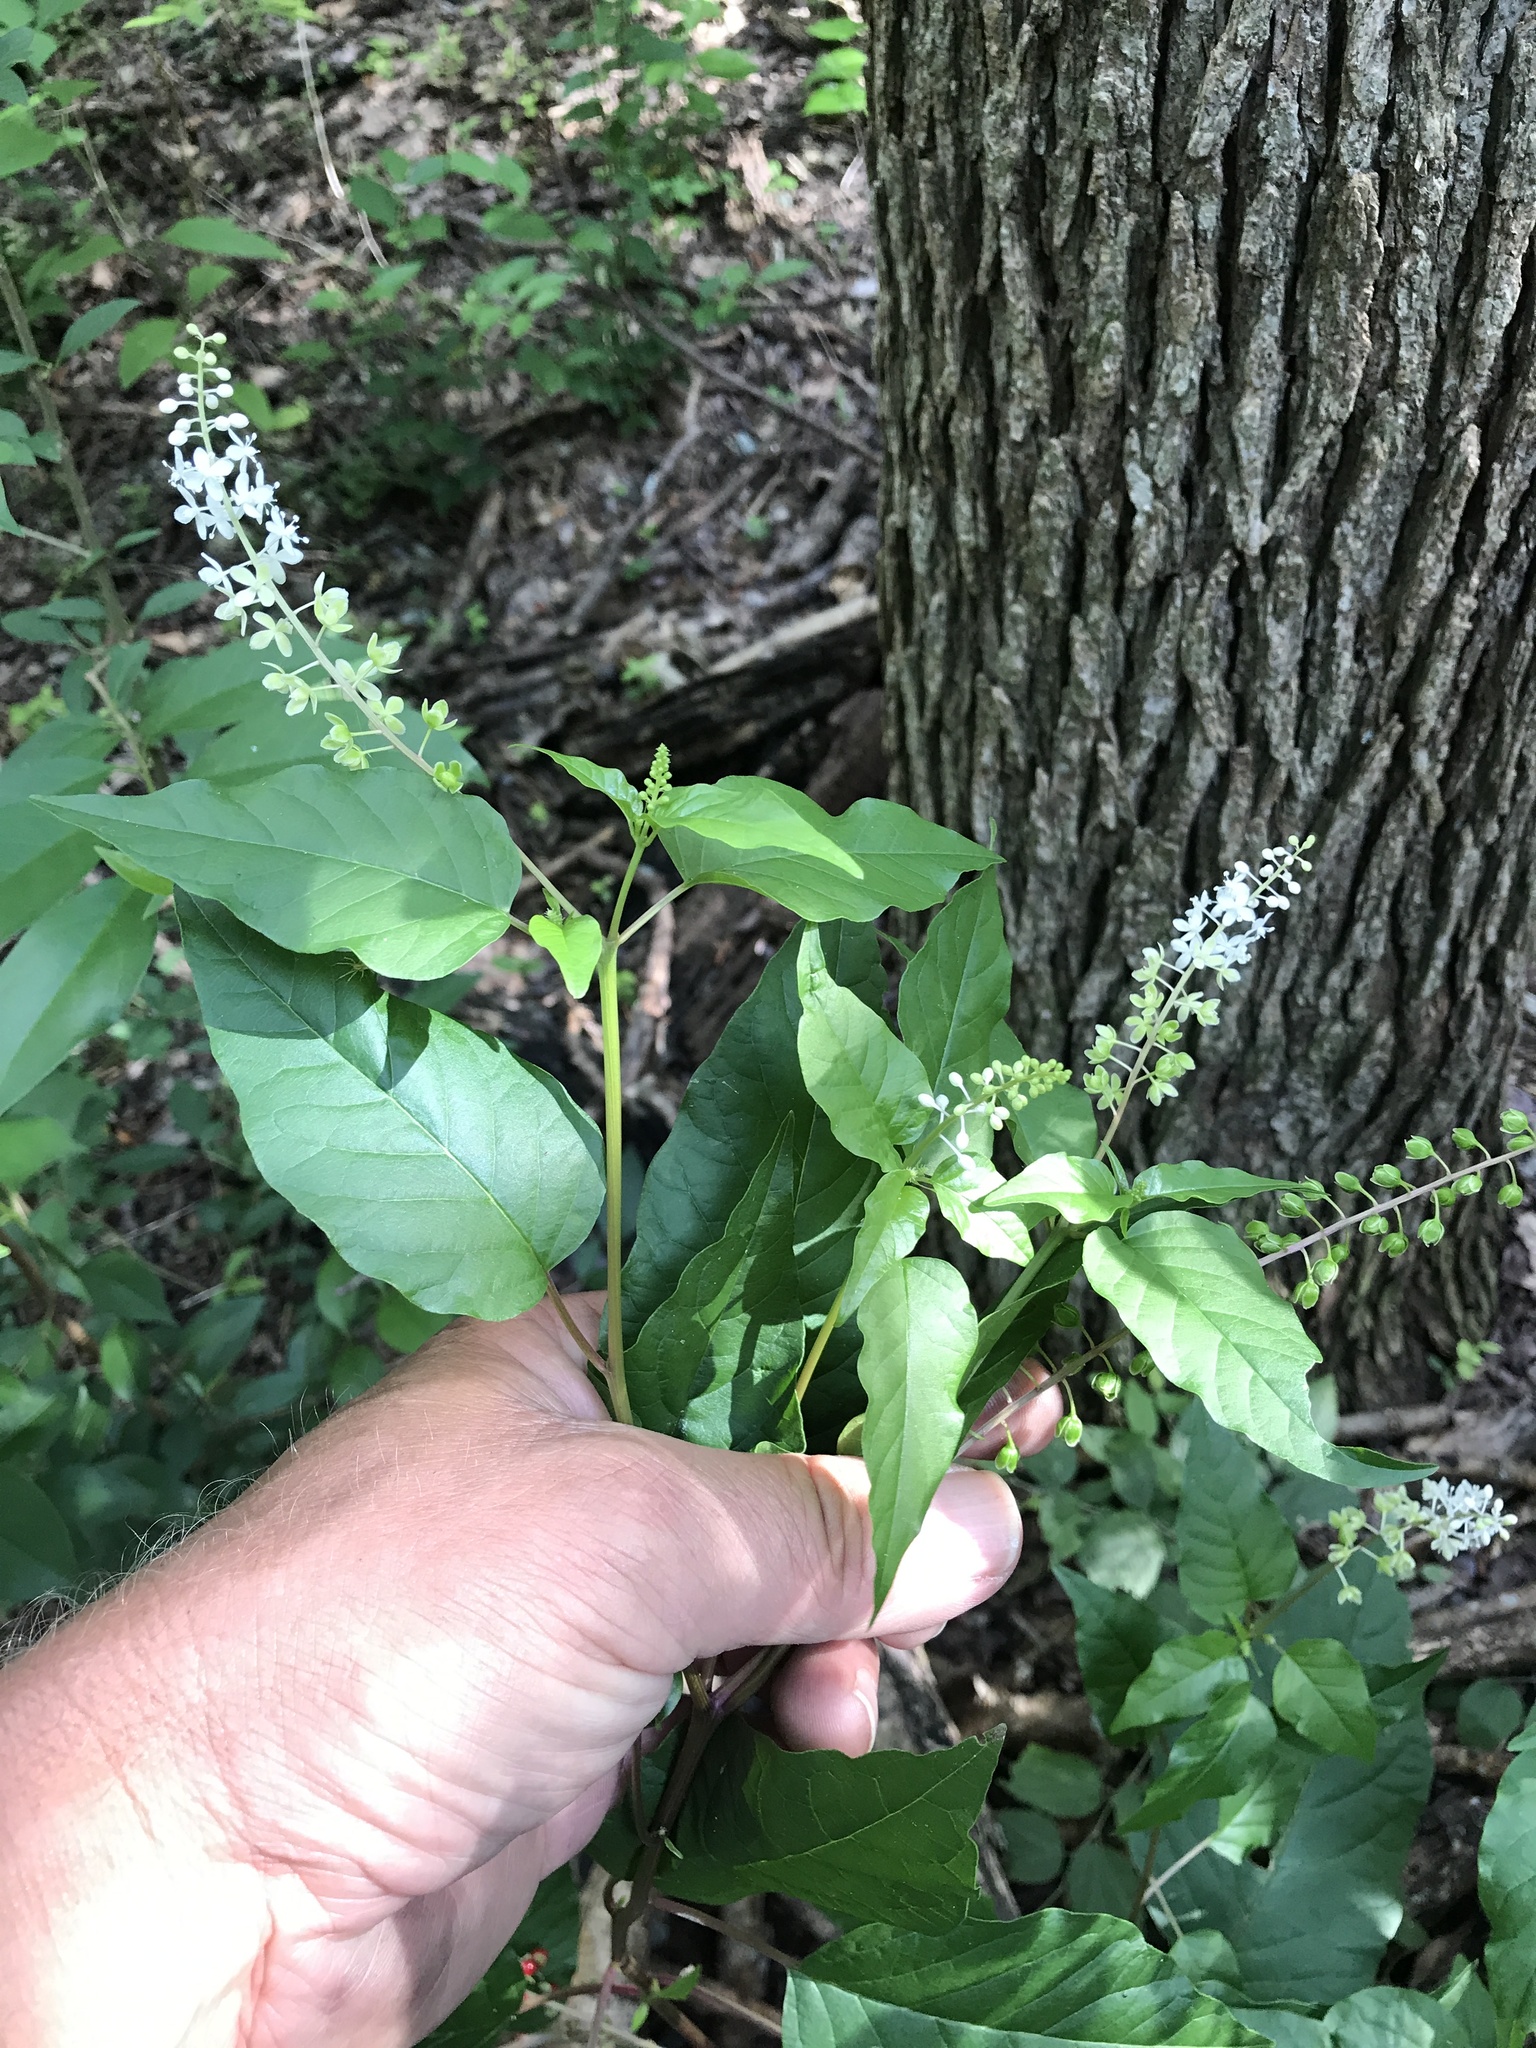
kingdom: Plantae
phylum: Tracheophyta
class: Magnoliopsida
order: Caryophyllales
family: Phytolaccaceae
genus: Rivina
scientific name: Rivina humilis
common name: Rougeplant
